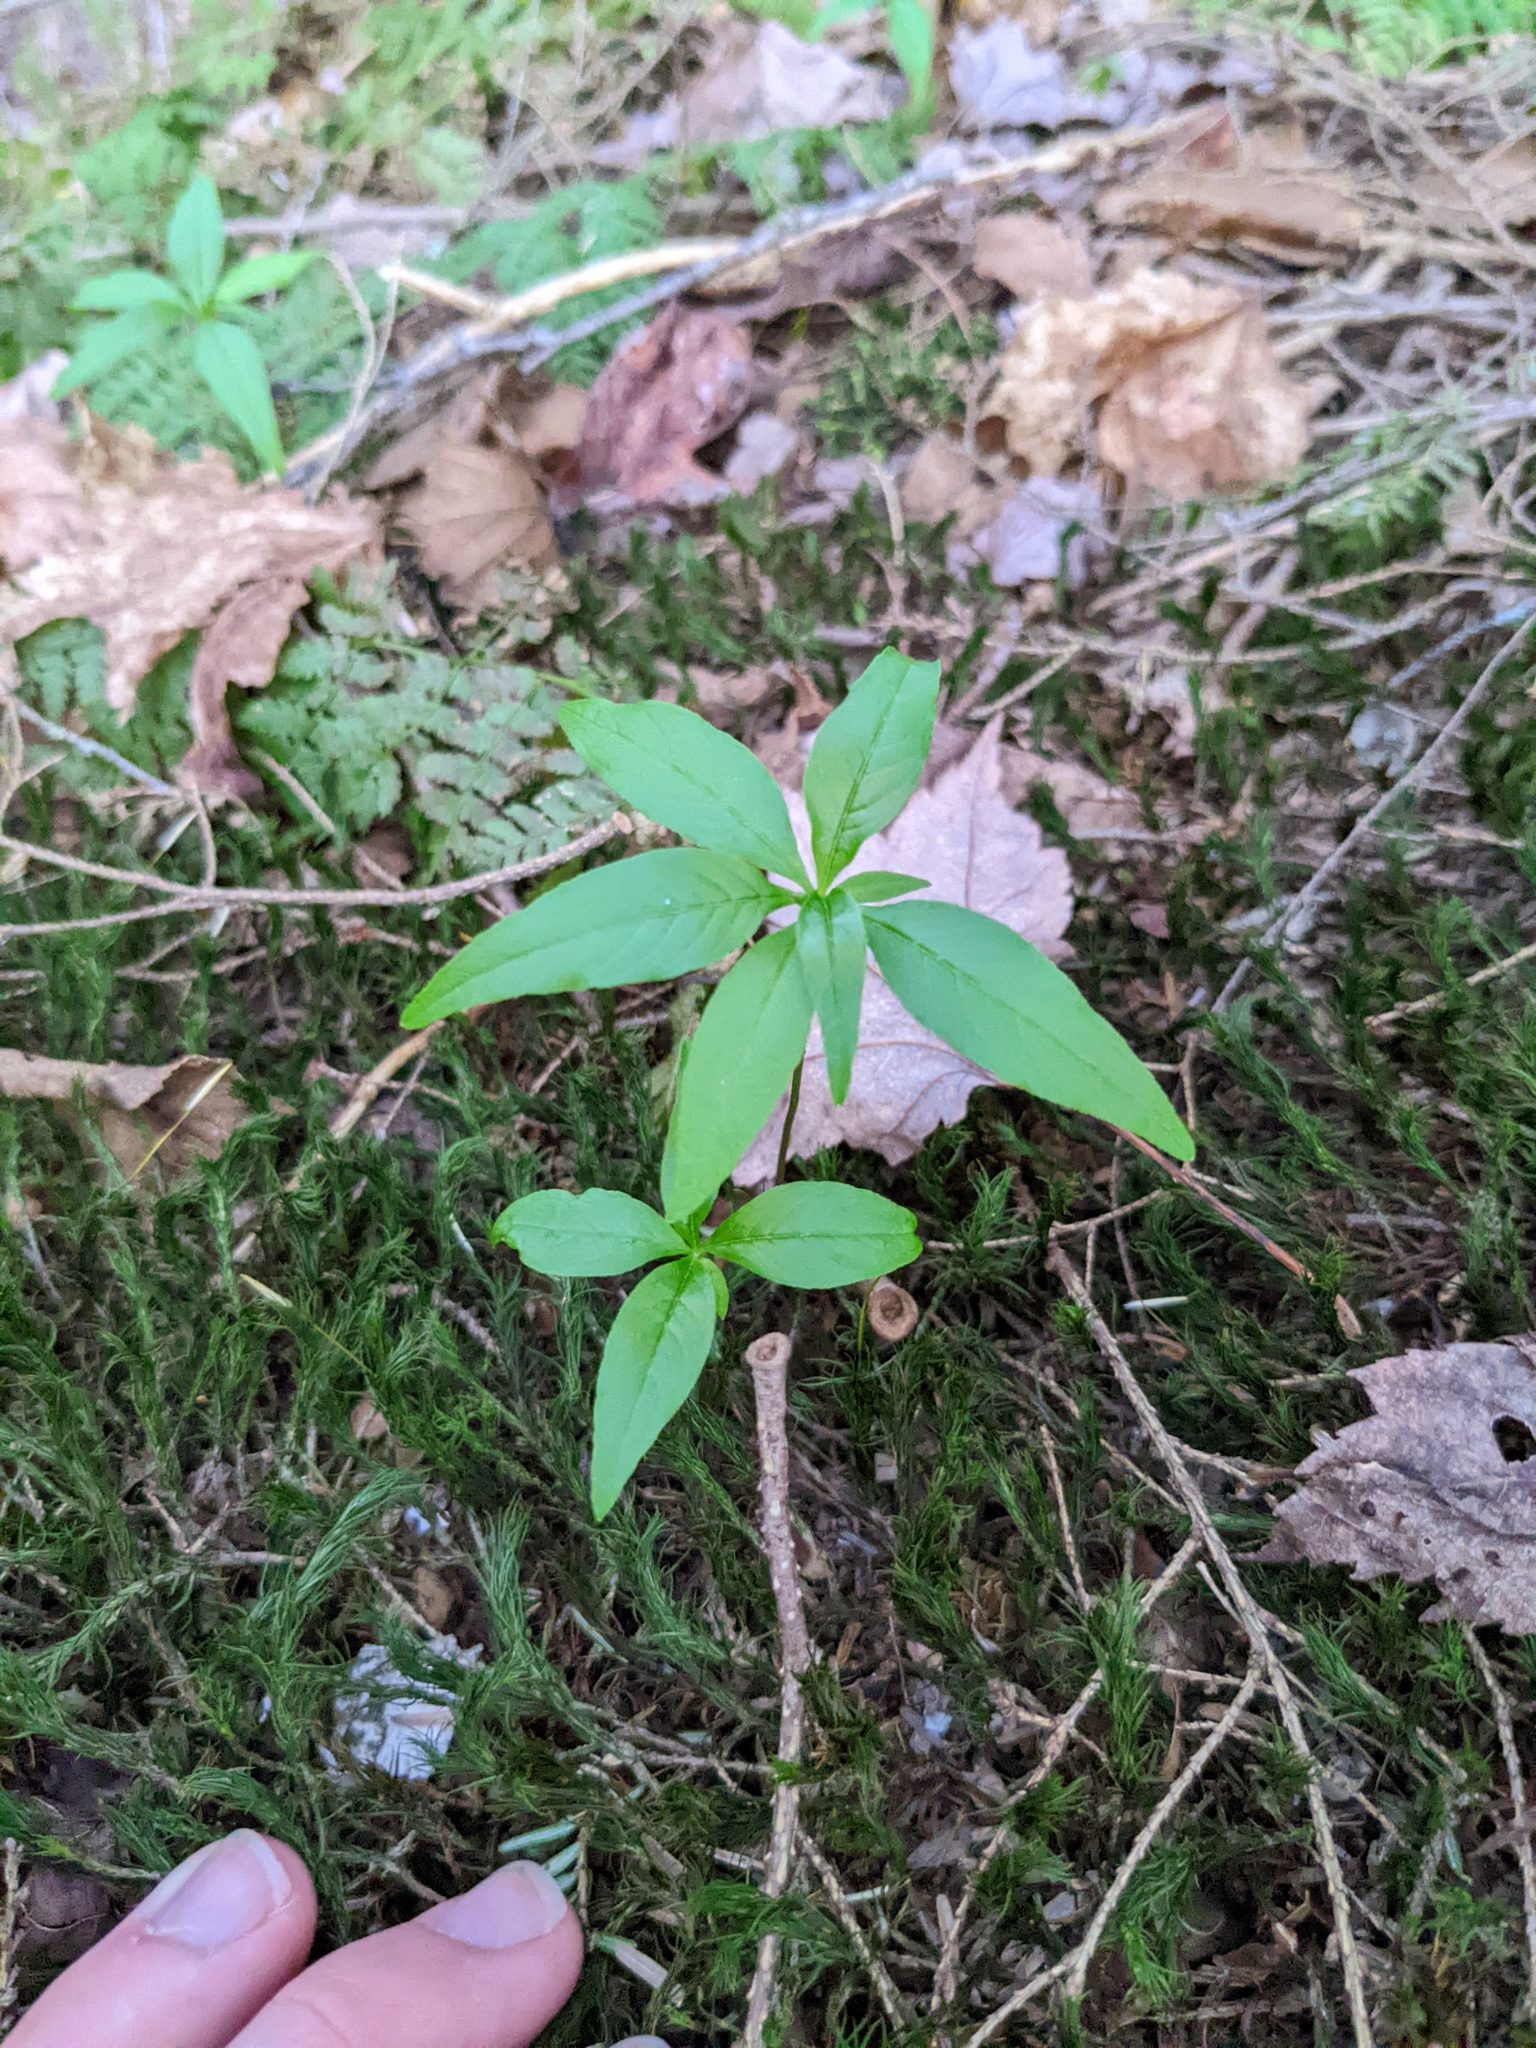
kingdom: Plantae
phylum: Tracheophyta
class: Magnoliopsida
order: Ericales
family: Primulaceae
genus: Lysimachia
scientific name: Lysimachia borealis
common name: American starflower
